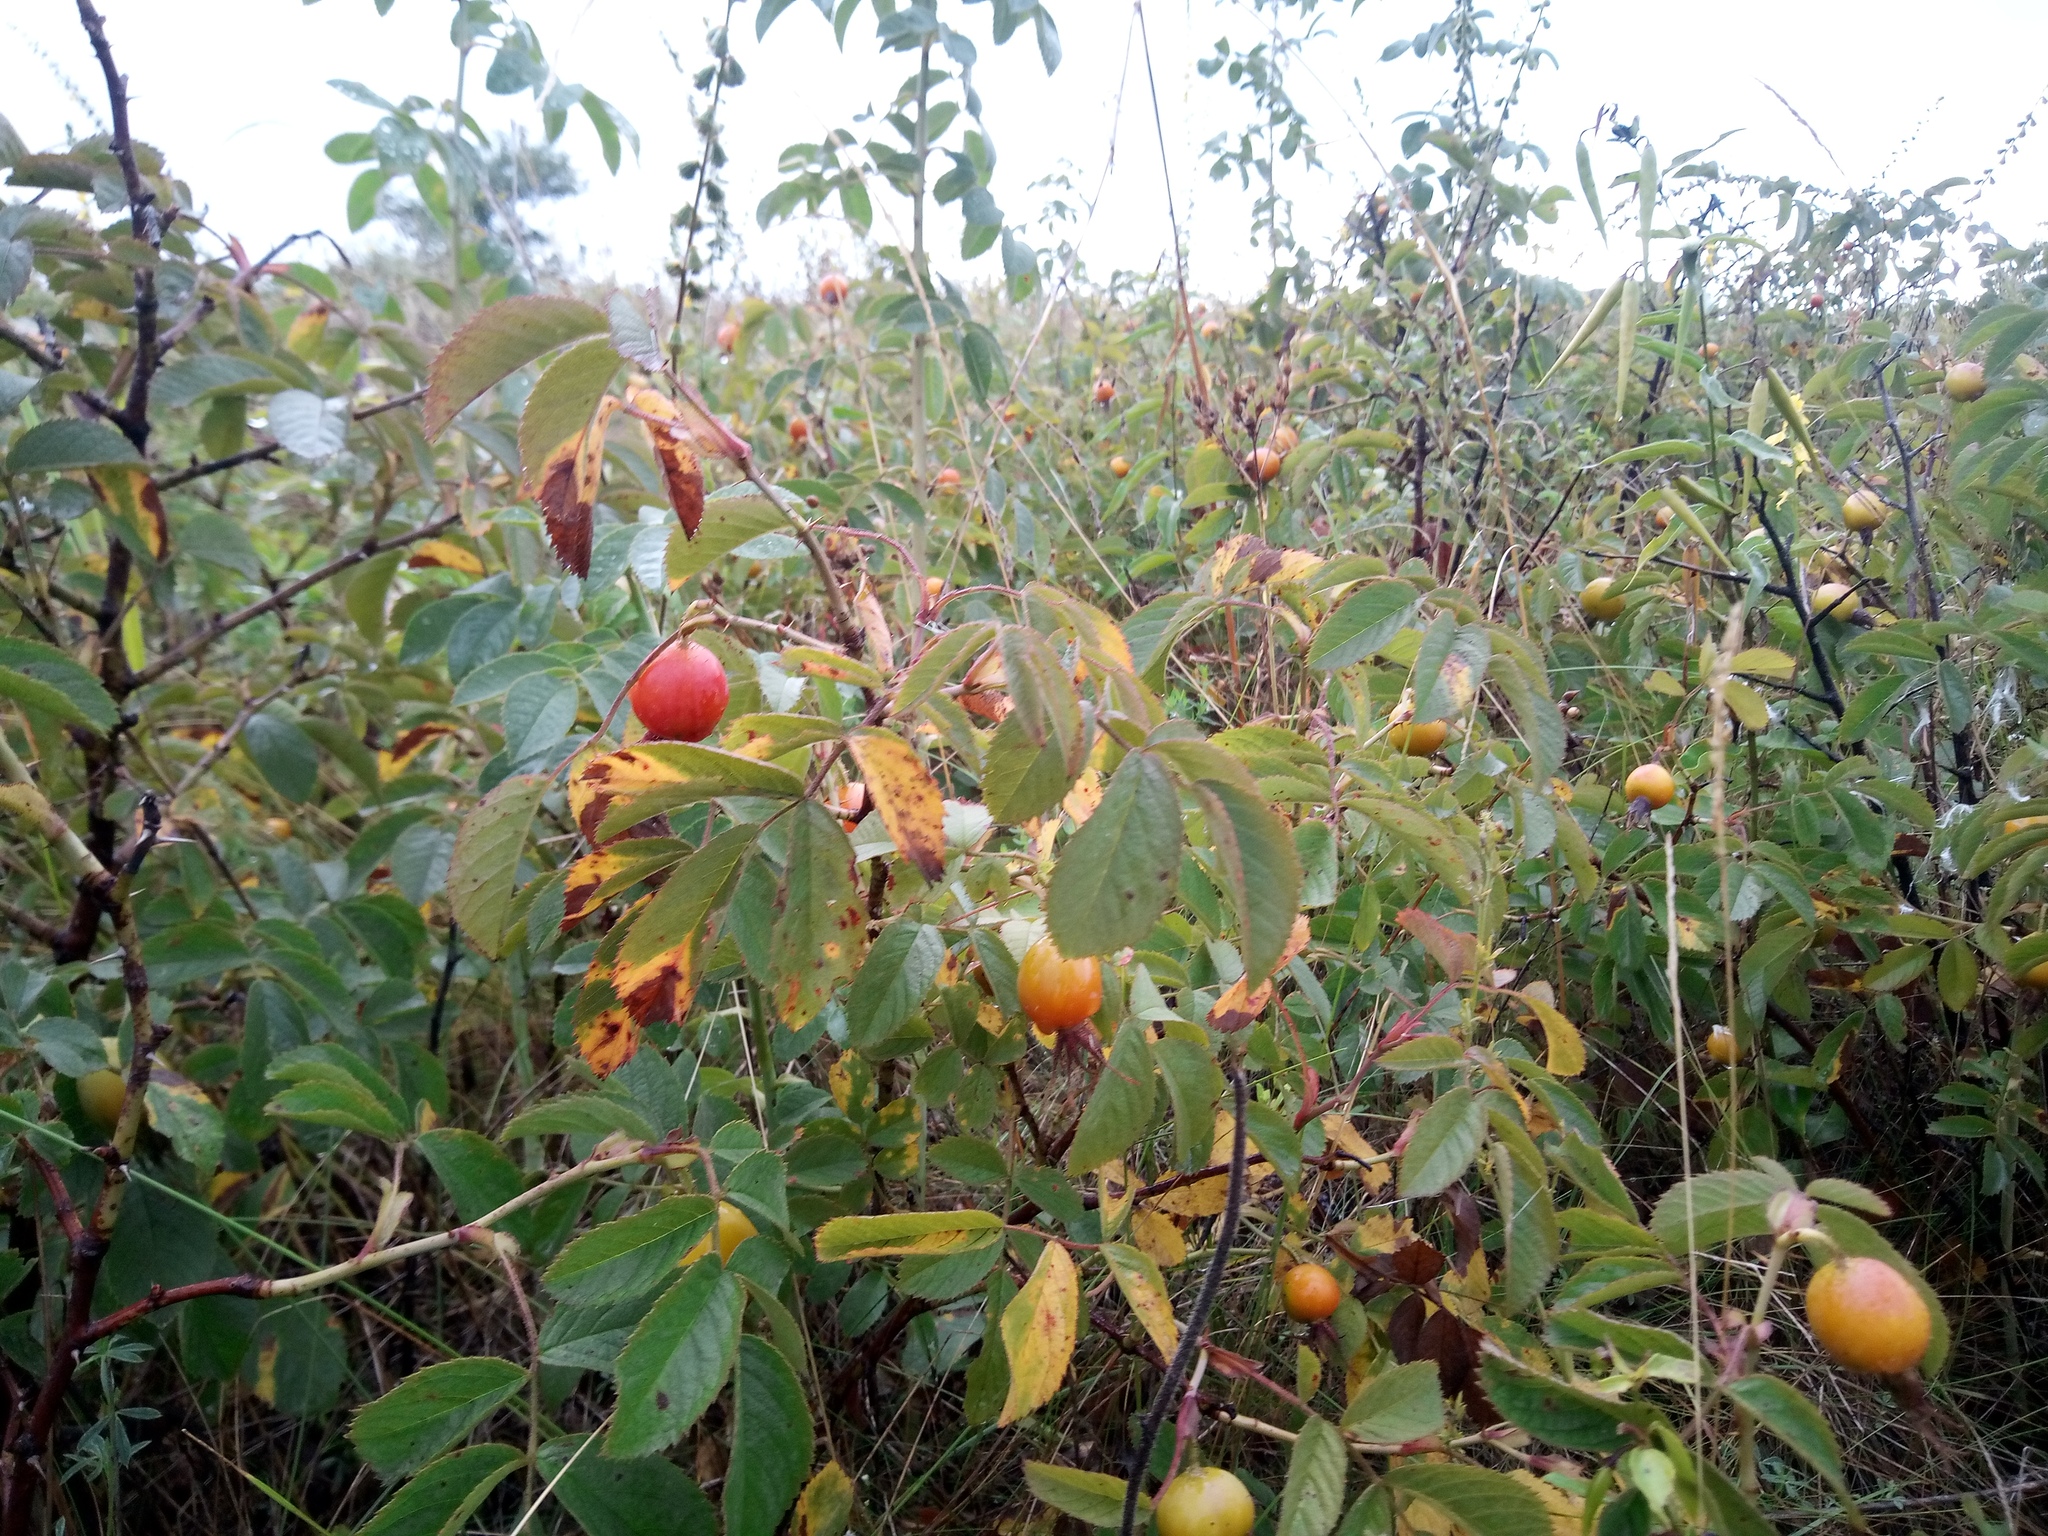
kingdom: Plantae
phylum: Tracheophyta
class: Magnoliopsida
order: Rosales
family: Rosaceae
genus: Rosa
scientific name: Rosa villosa
